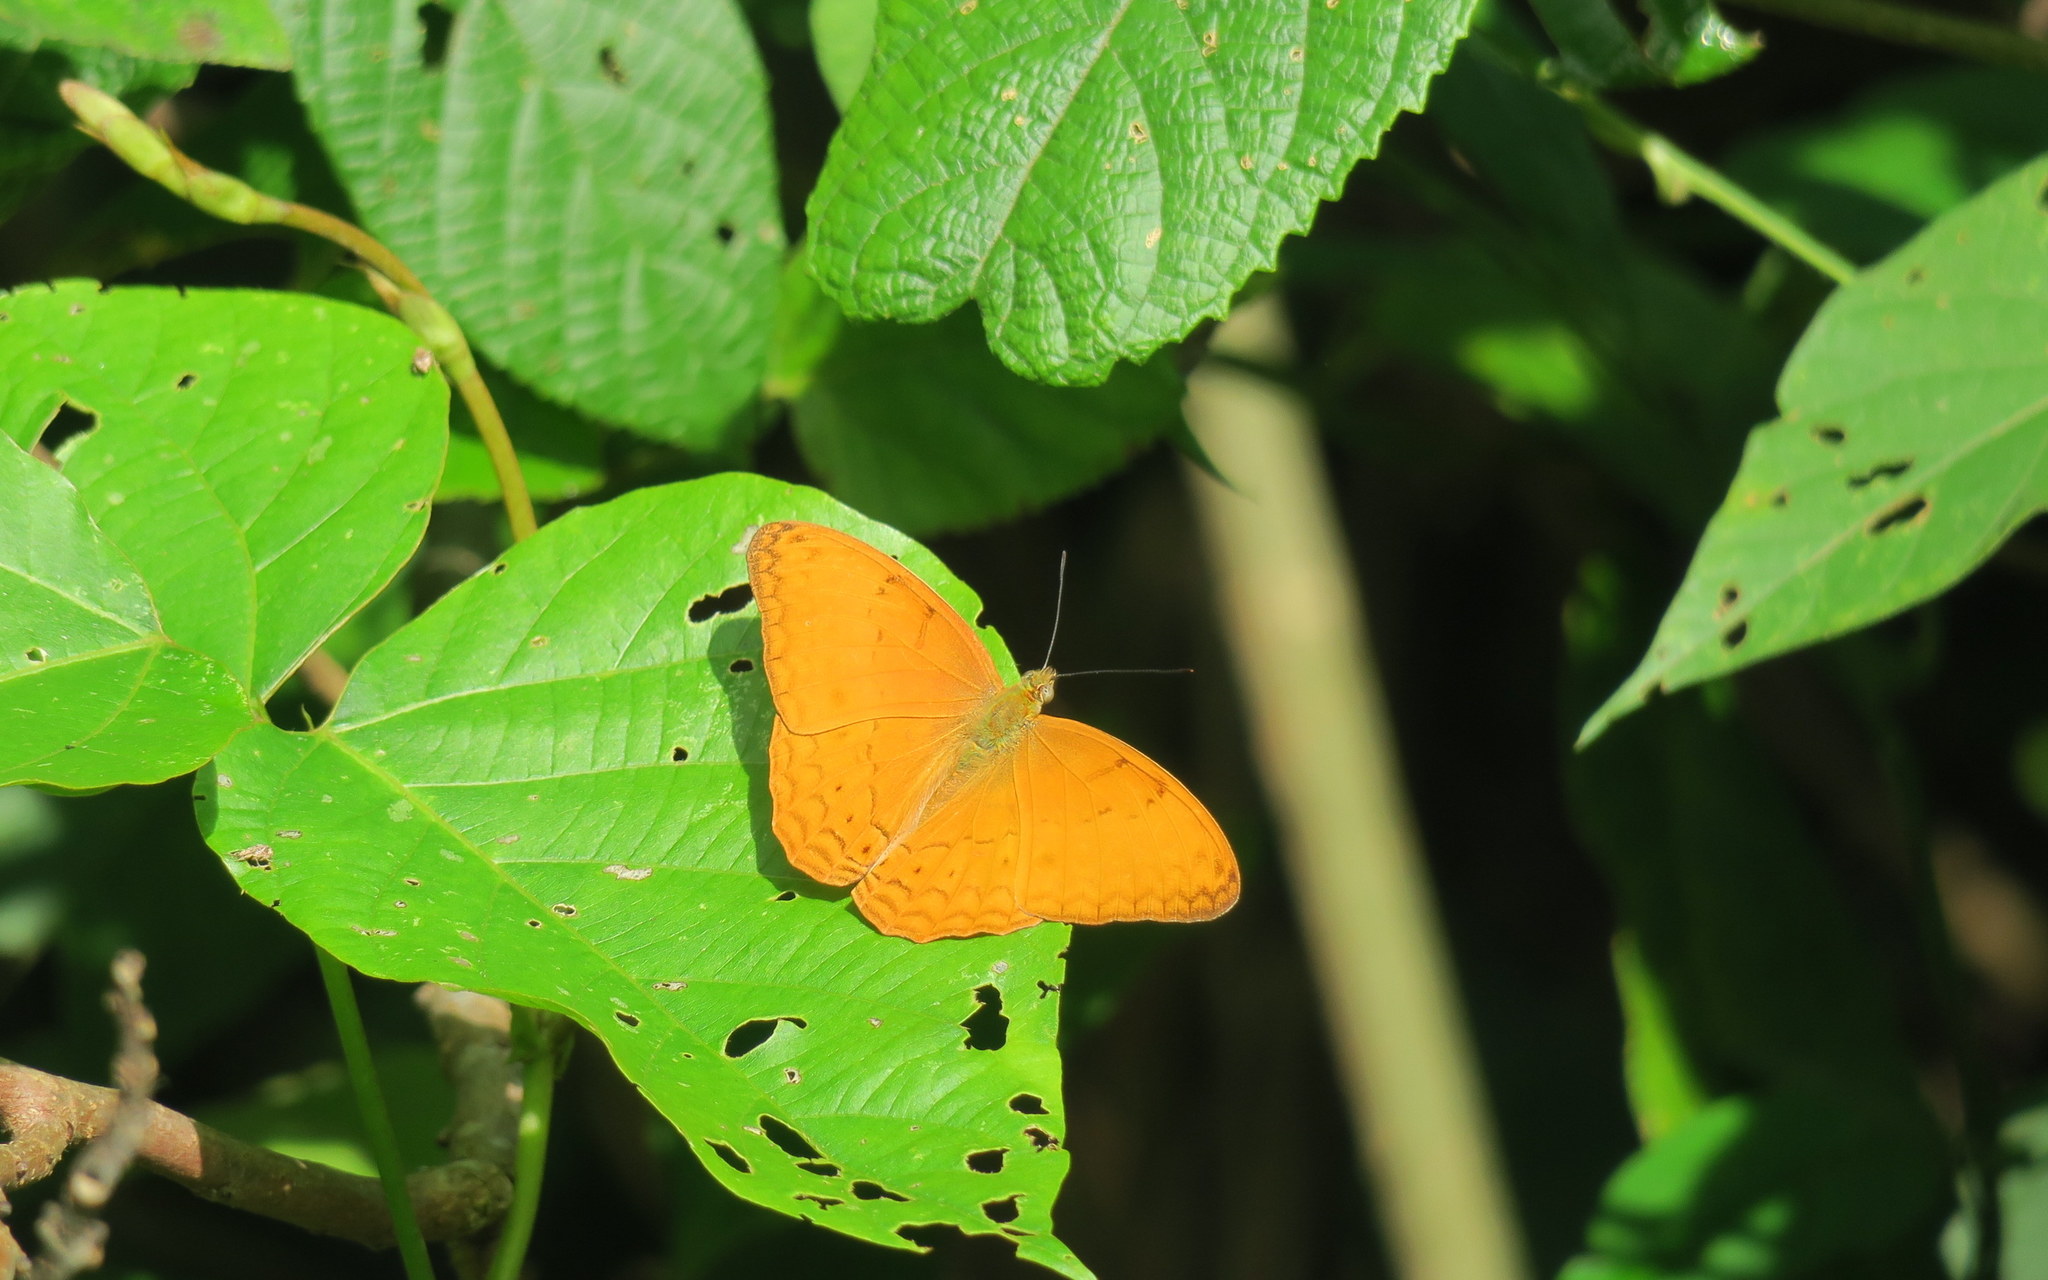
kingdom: Animalia
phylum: Arthropoda
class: Insecta
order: Lepidoptera
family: Nymphalidae
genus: Cirrochroa
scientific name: Cirrochroa tyche
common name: Common yeoman
